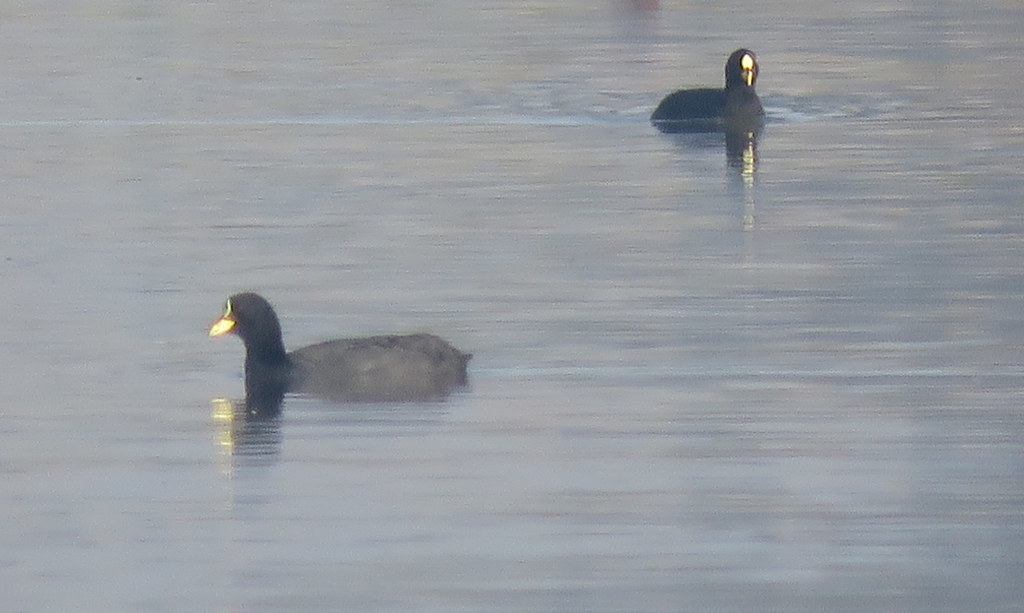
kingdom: Animalia
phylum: Chordata
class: Aves
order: Gruiformes
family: Rallidae
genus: Fulica
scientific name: Fulica armillata
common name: Red-gartered coot
